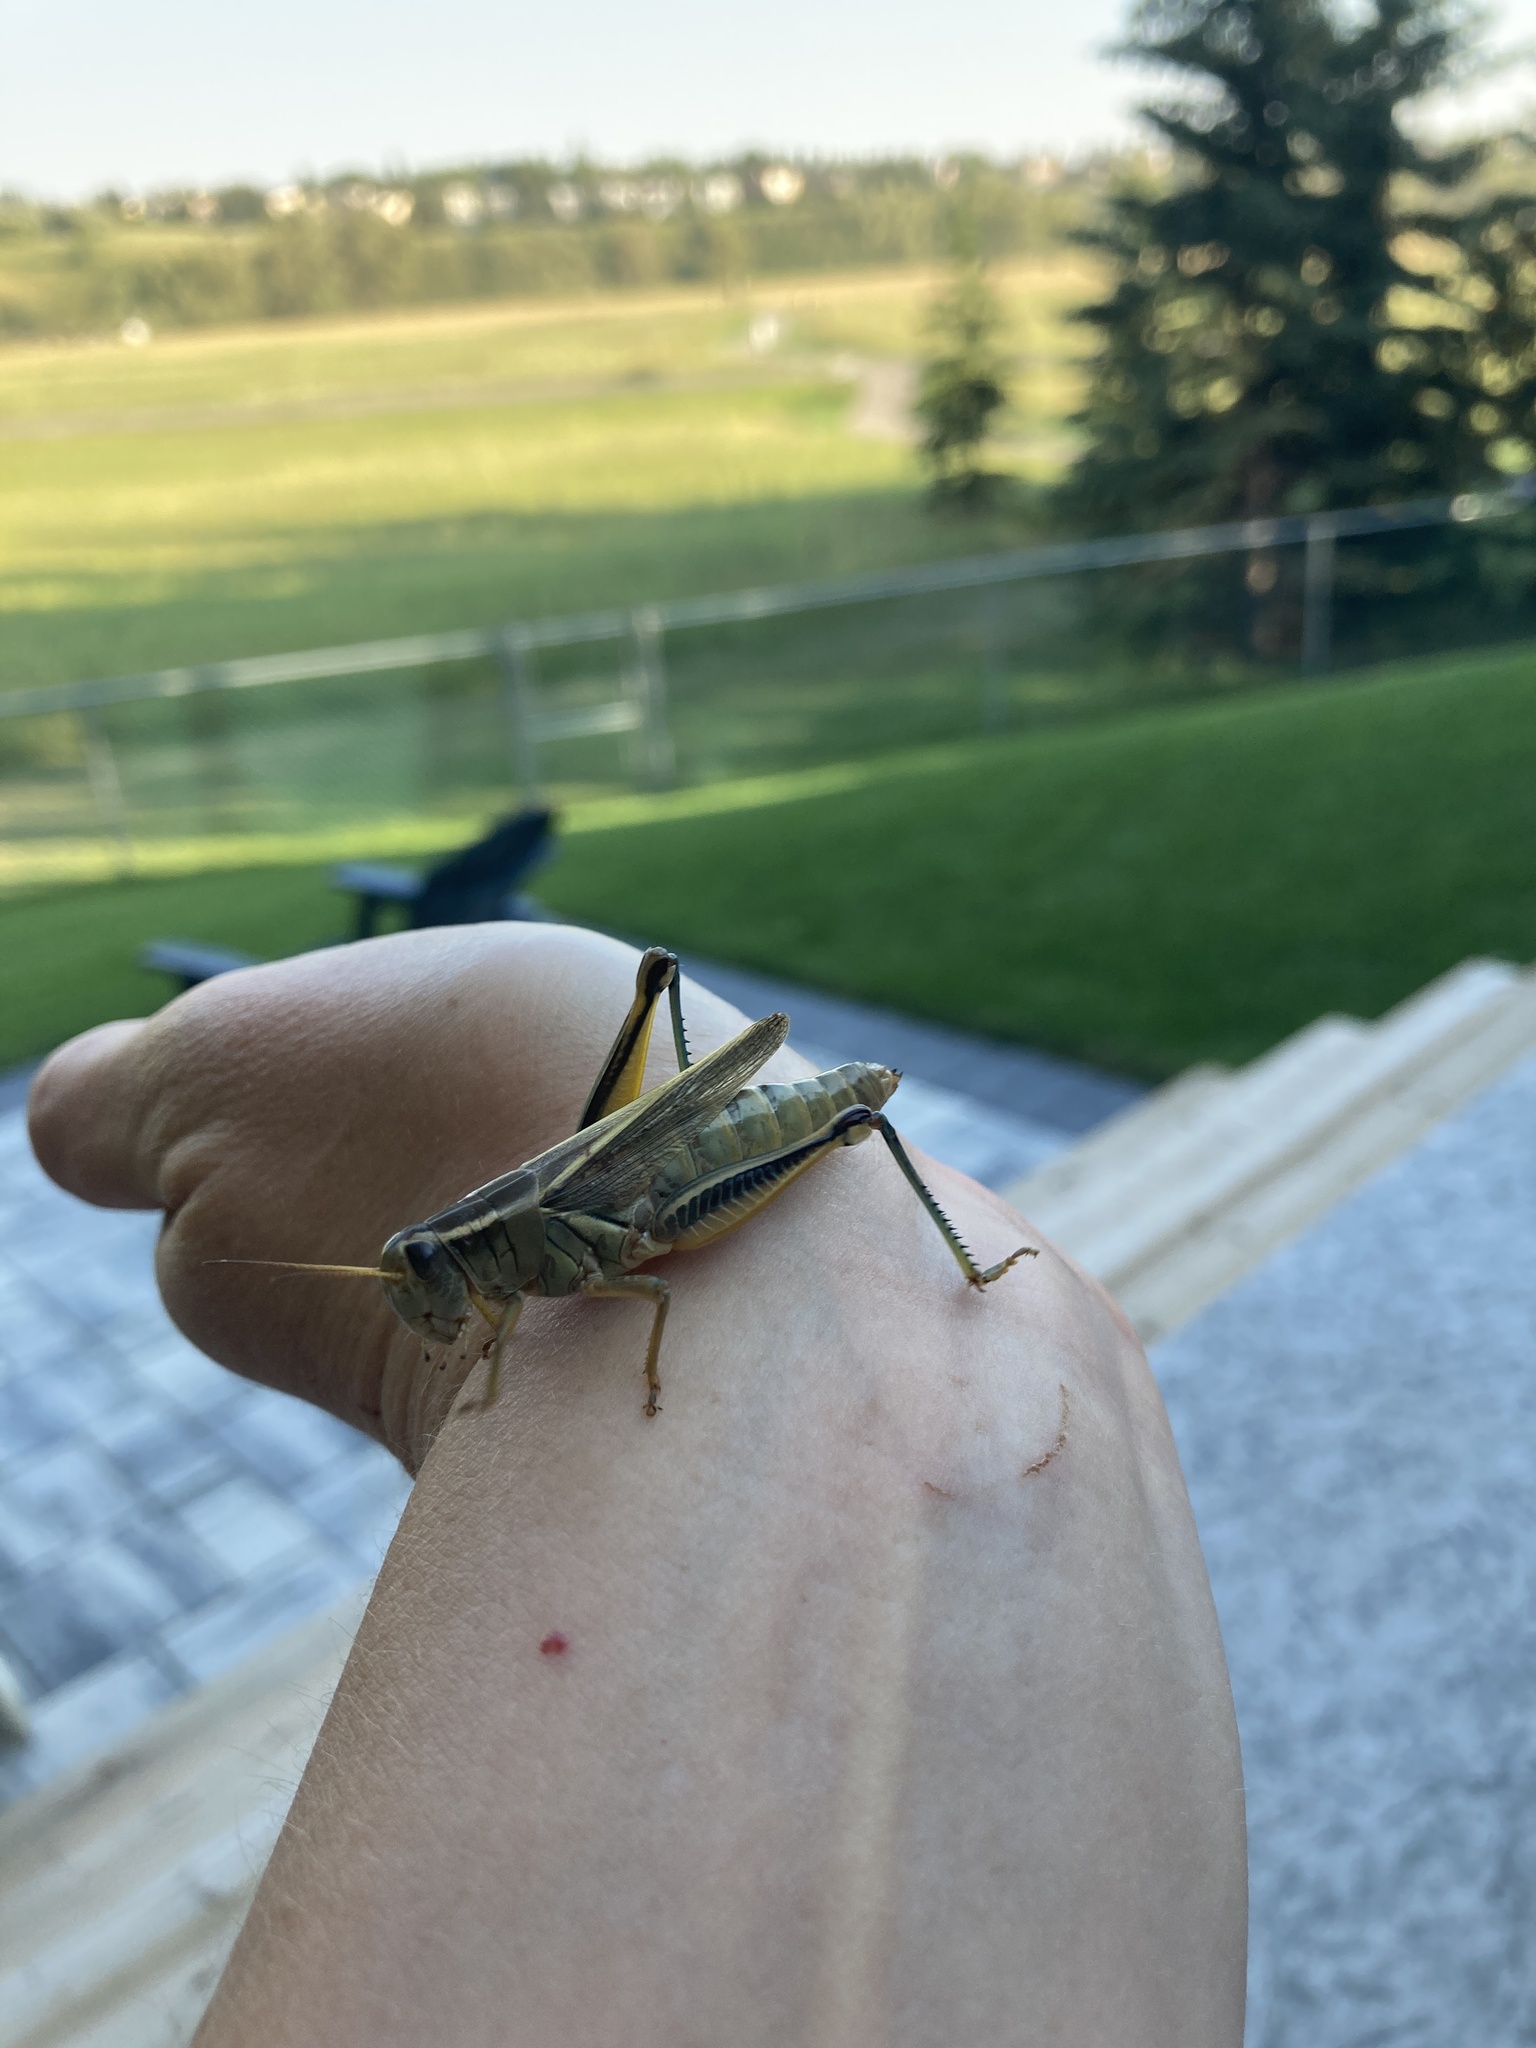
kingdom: Animalia
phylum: Arthropoda
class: Insecta
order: Orthoptera
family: Acrididae
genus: Melanoplus
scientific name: Melanoplus bivittatus
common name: Two-striped grasshopper
